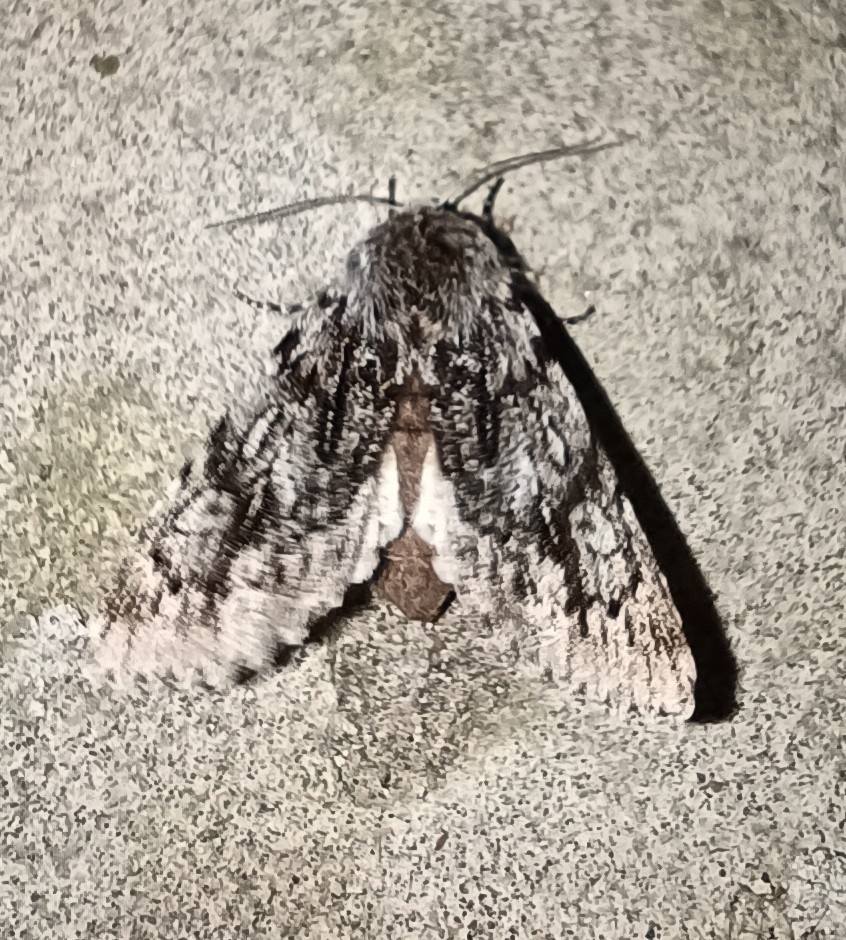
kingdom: Animalia
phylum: Arthropoda
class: Insecta
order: Lepidoptera
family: Noctuidae
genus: Brachionycha
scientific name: Brachionycha nubeculosa
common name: Rannoch sprawler
